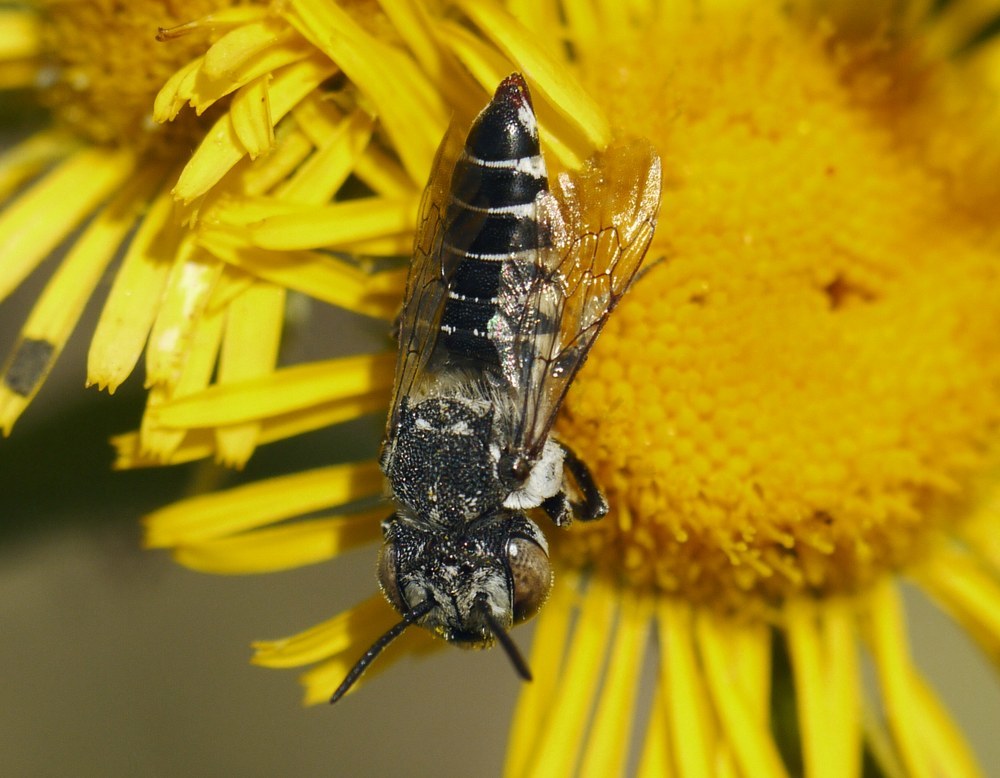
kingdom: Animalia
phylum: Arthropoda
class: Insecta
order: Hymenoptera
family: Megachilidae
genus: Coelioxys
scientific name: Coelioxys afra
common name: Short sharp-tail bee
